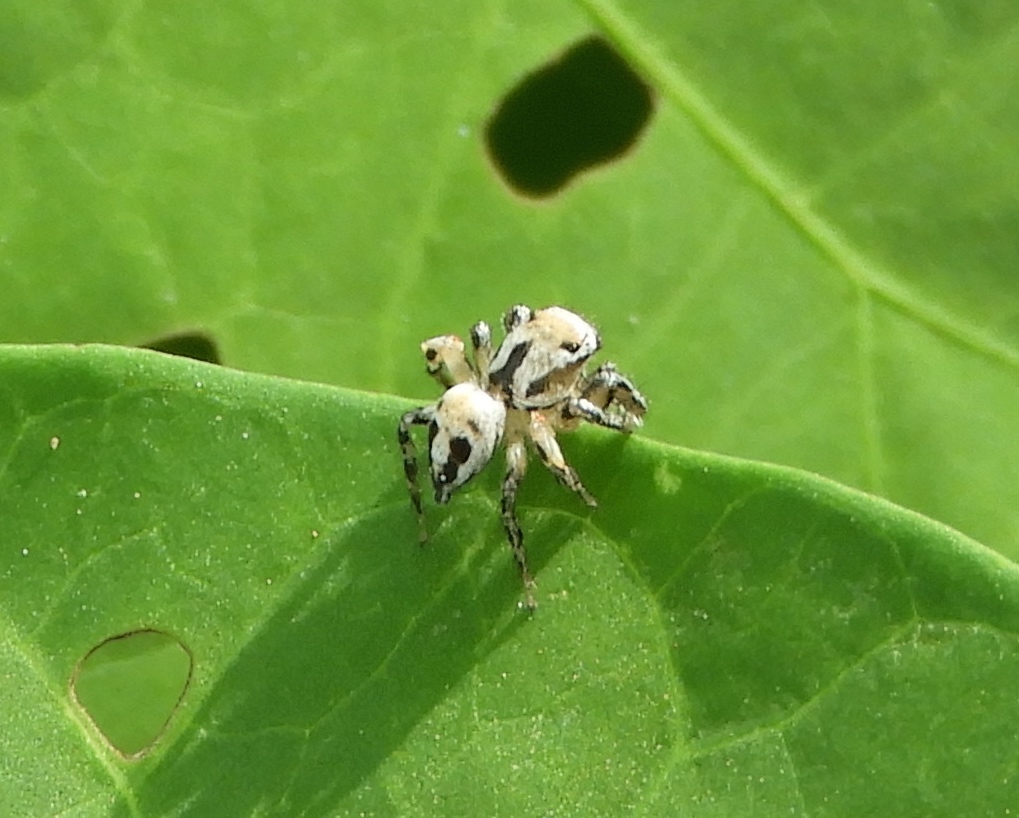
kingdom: Animalia
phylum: Arthropoda
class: Arachnida
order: Araneae
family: Salticidae
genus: Habronattus
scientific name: Habronattus aztecanus
